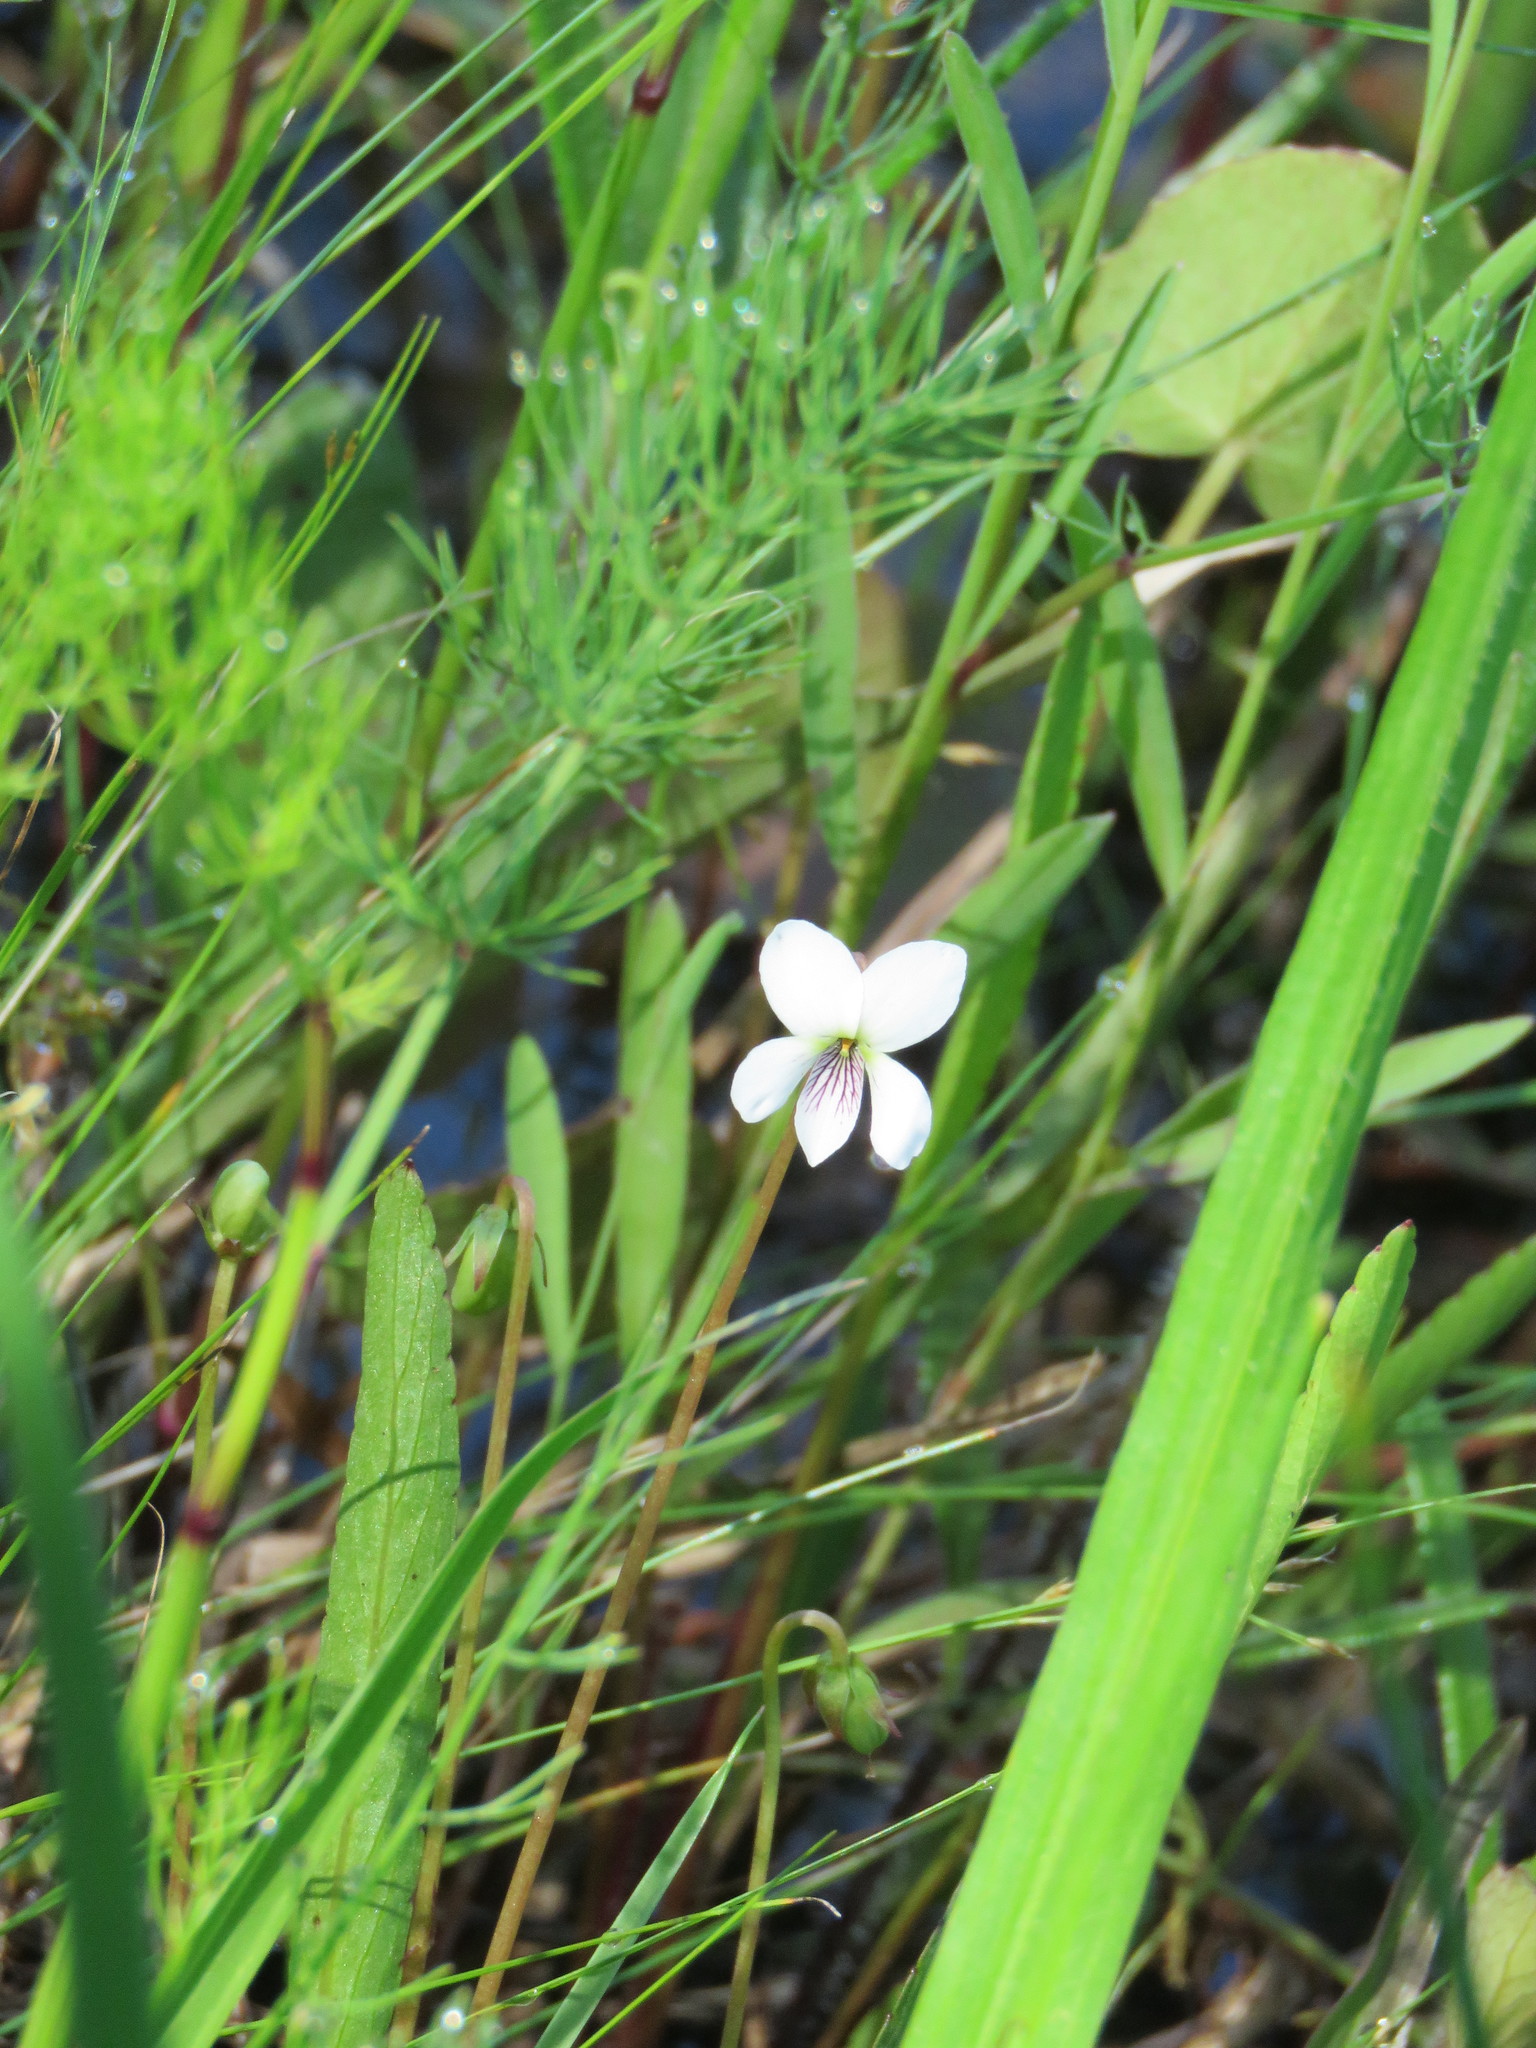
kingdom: Plantae
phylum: Tracheophyta
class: Magnoliopsida
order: Malpighiales
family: Violaceae
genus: Viola
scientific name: Viola lanceolata
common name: Bog white violet
